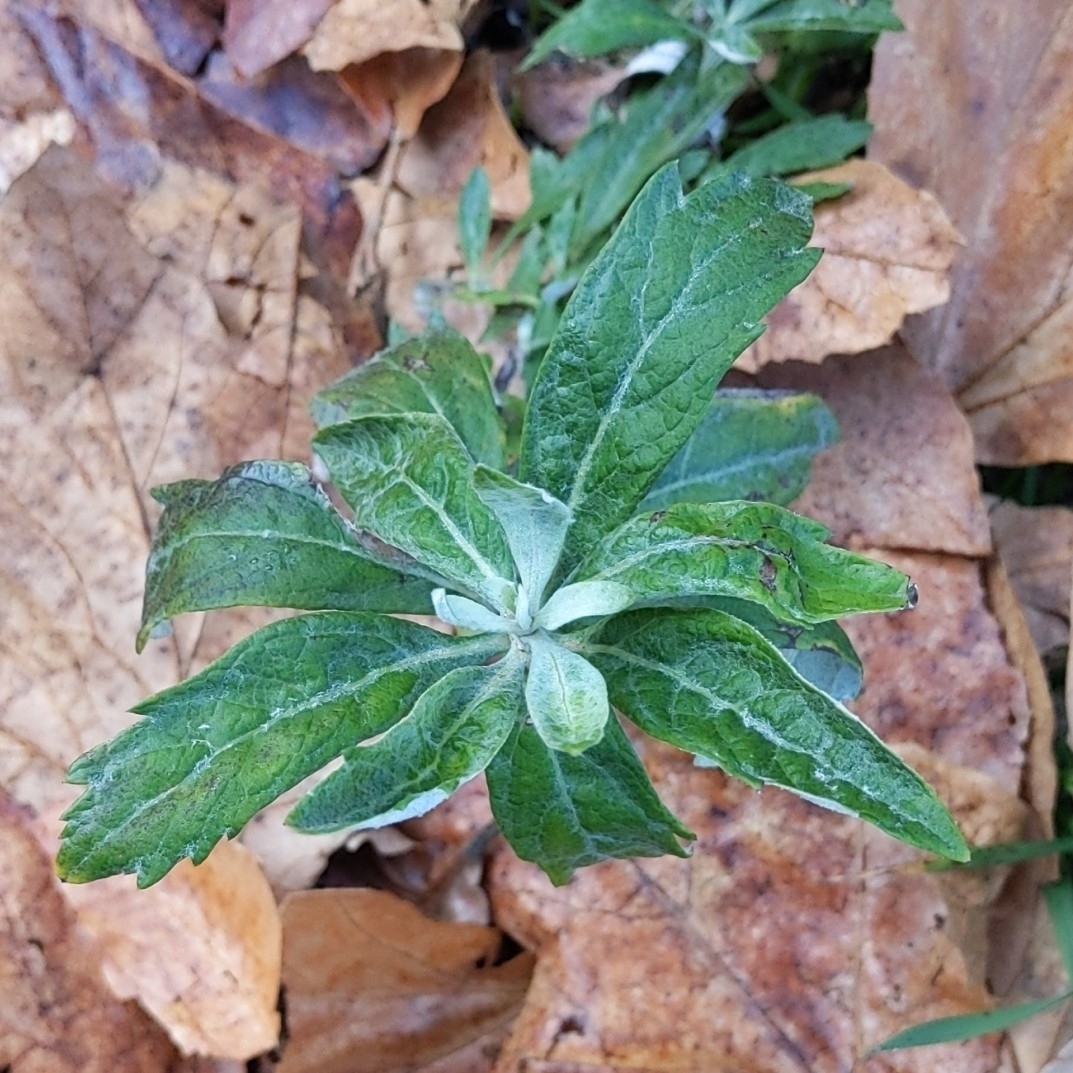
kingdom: Plantae
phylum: Tracheophyta
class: Magnoliopsida
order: Asterales
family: Asteraceae
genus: Artemisia
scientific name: Artemisia douglasiana
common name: Northwest mugwort
